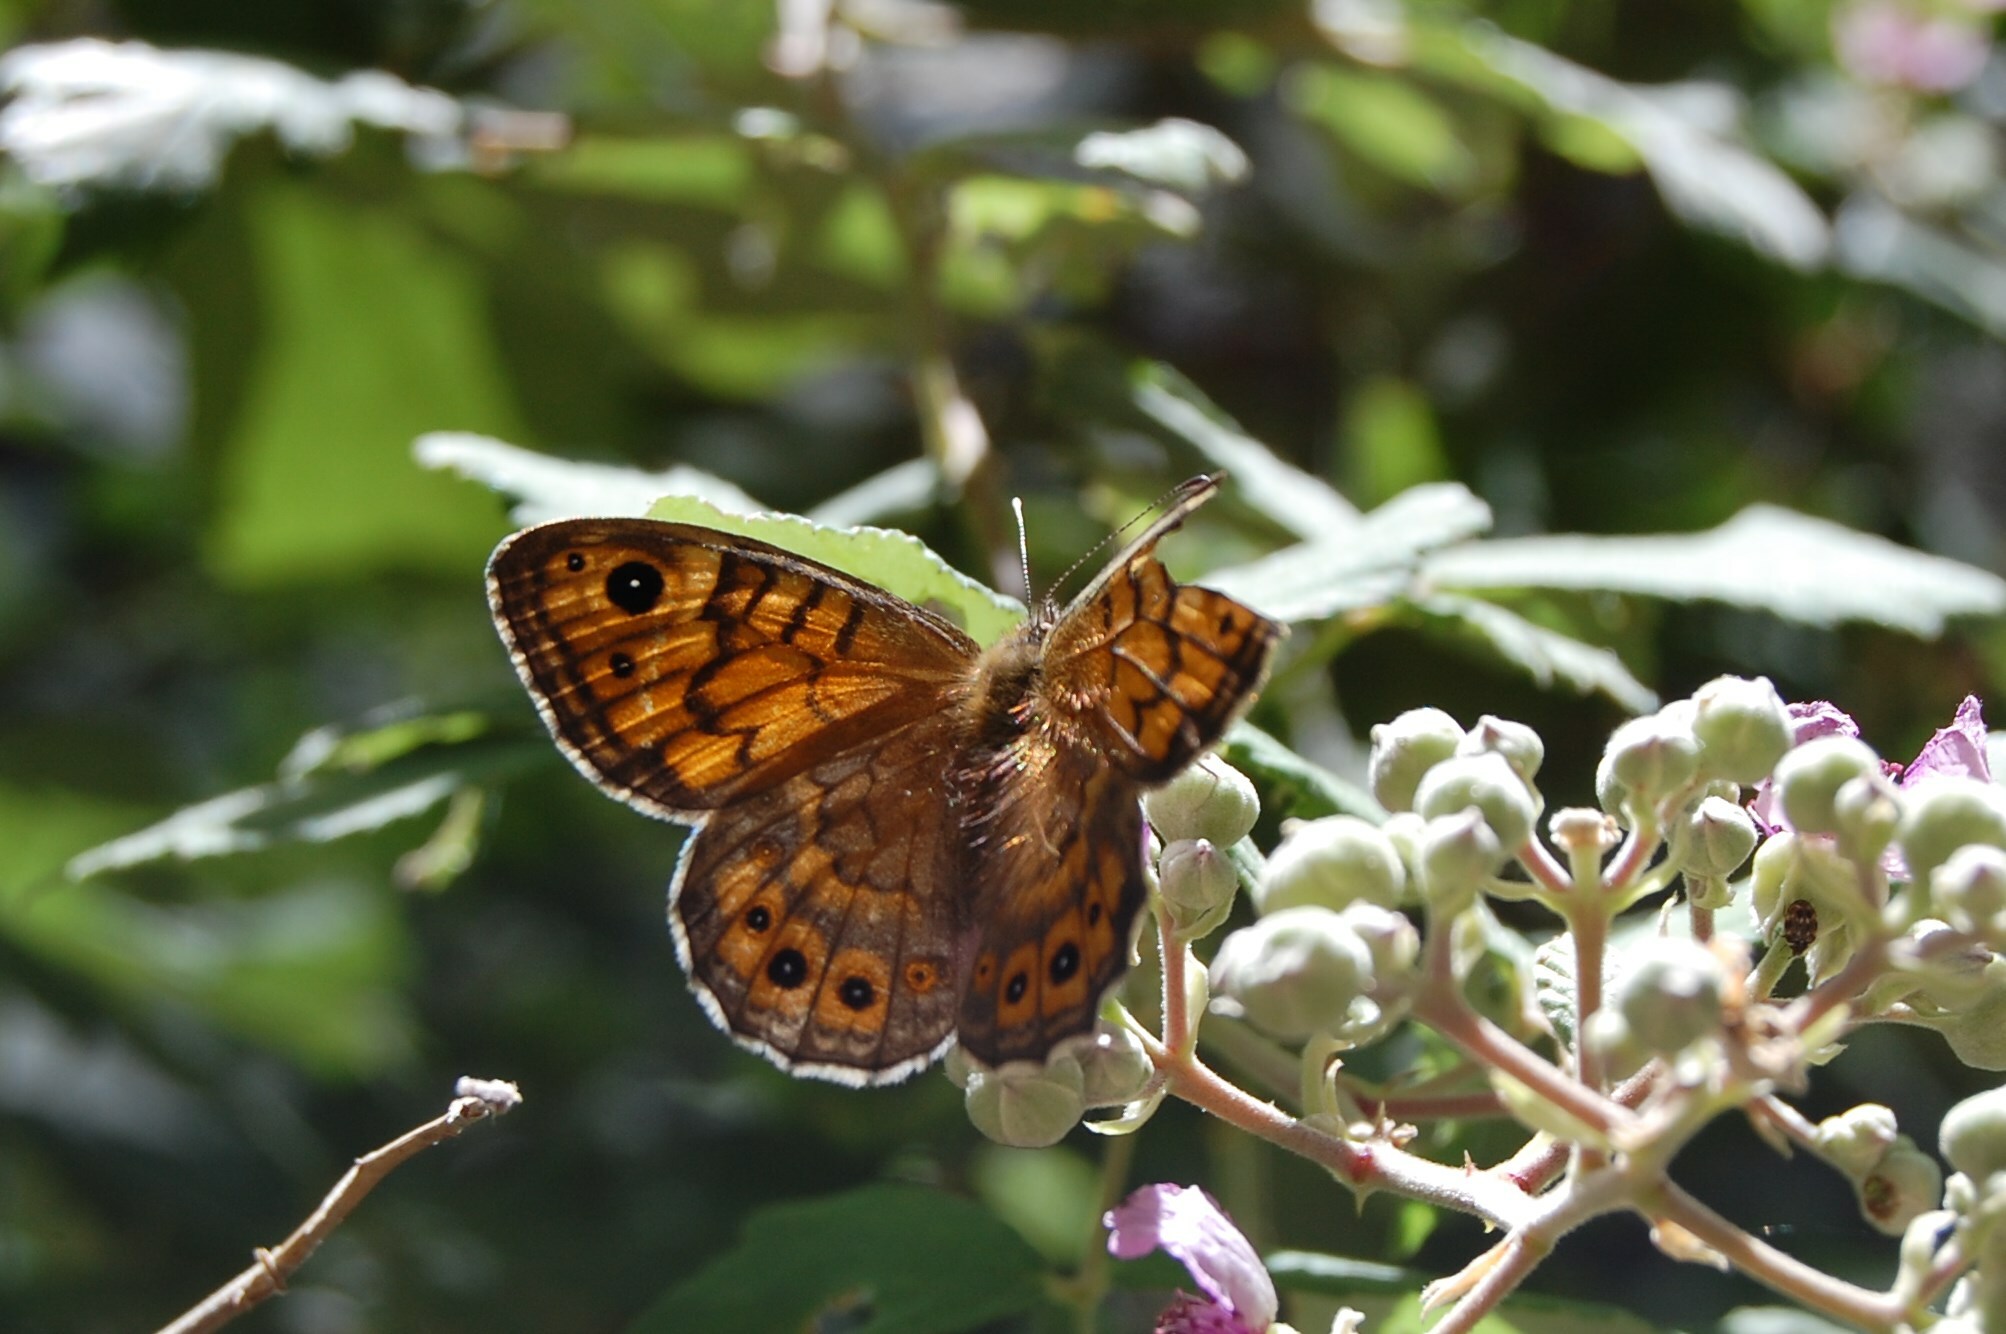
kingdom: Animalia
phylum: Arthropoda
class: Insecta
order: Lepidoptera
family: Nymphalidae
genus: Pararge
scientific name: Pararge Lasiommata megera
